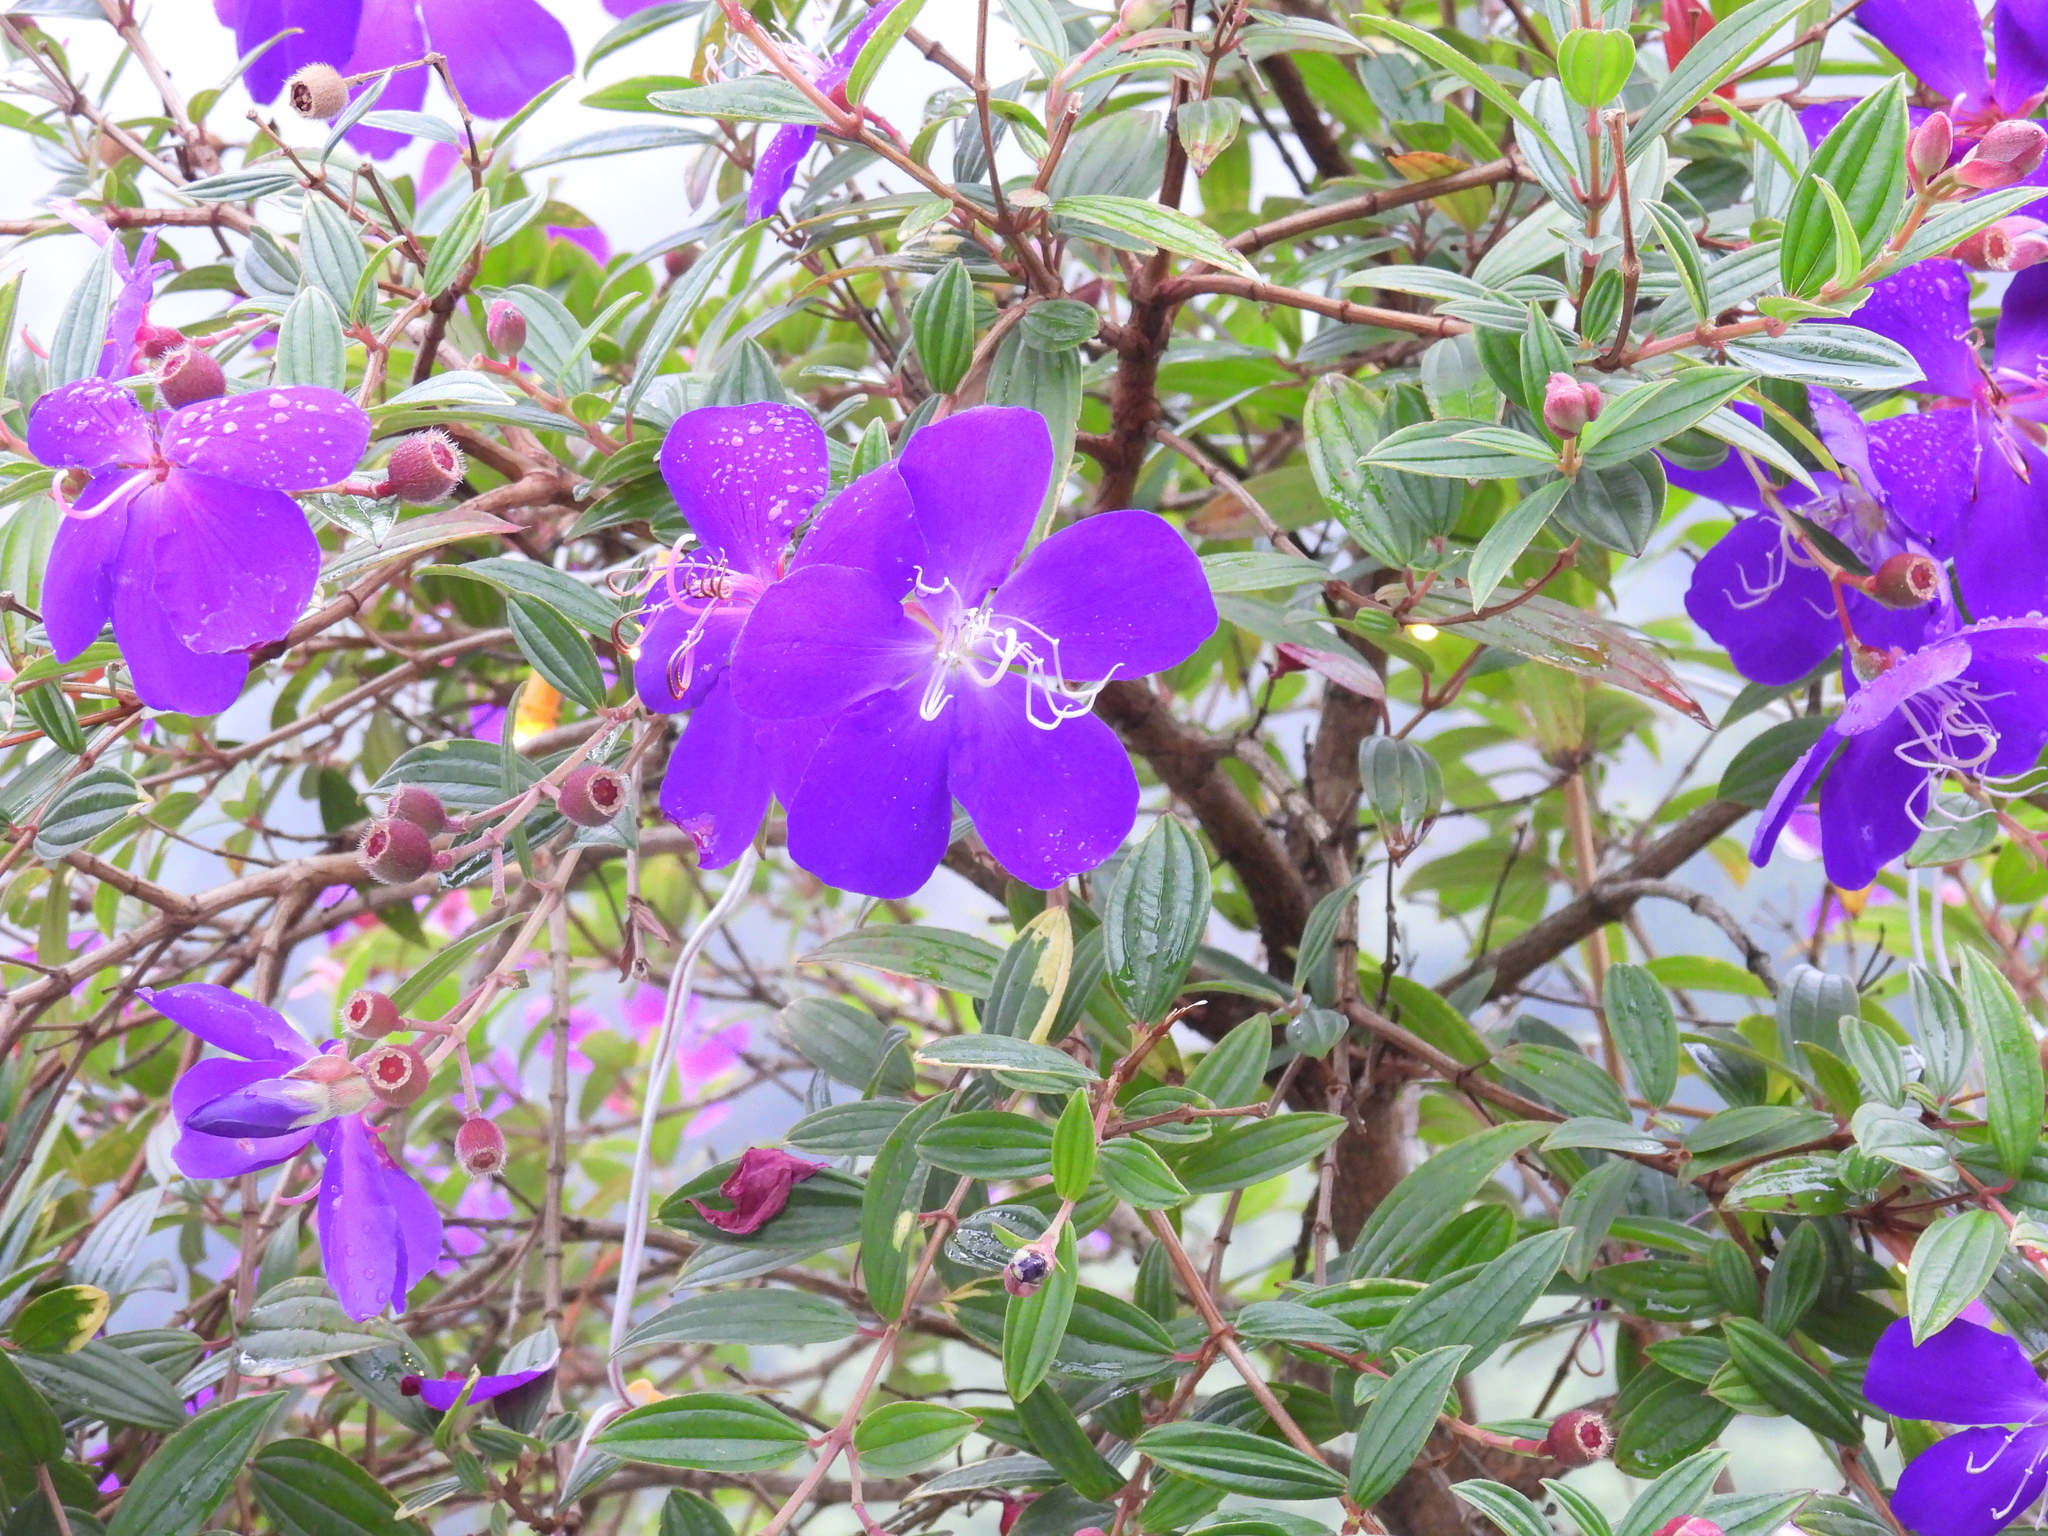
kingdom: Plantae
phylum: Tracheophyta
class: Magnoliopsida
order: Myrtales
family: Melastomataceae
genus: Pleroma
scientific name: Pleroma semidecandrum
